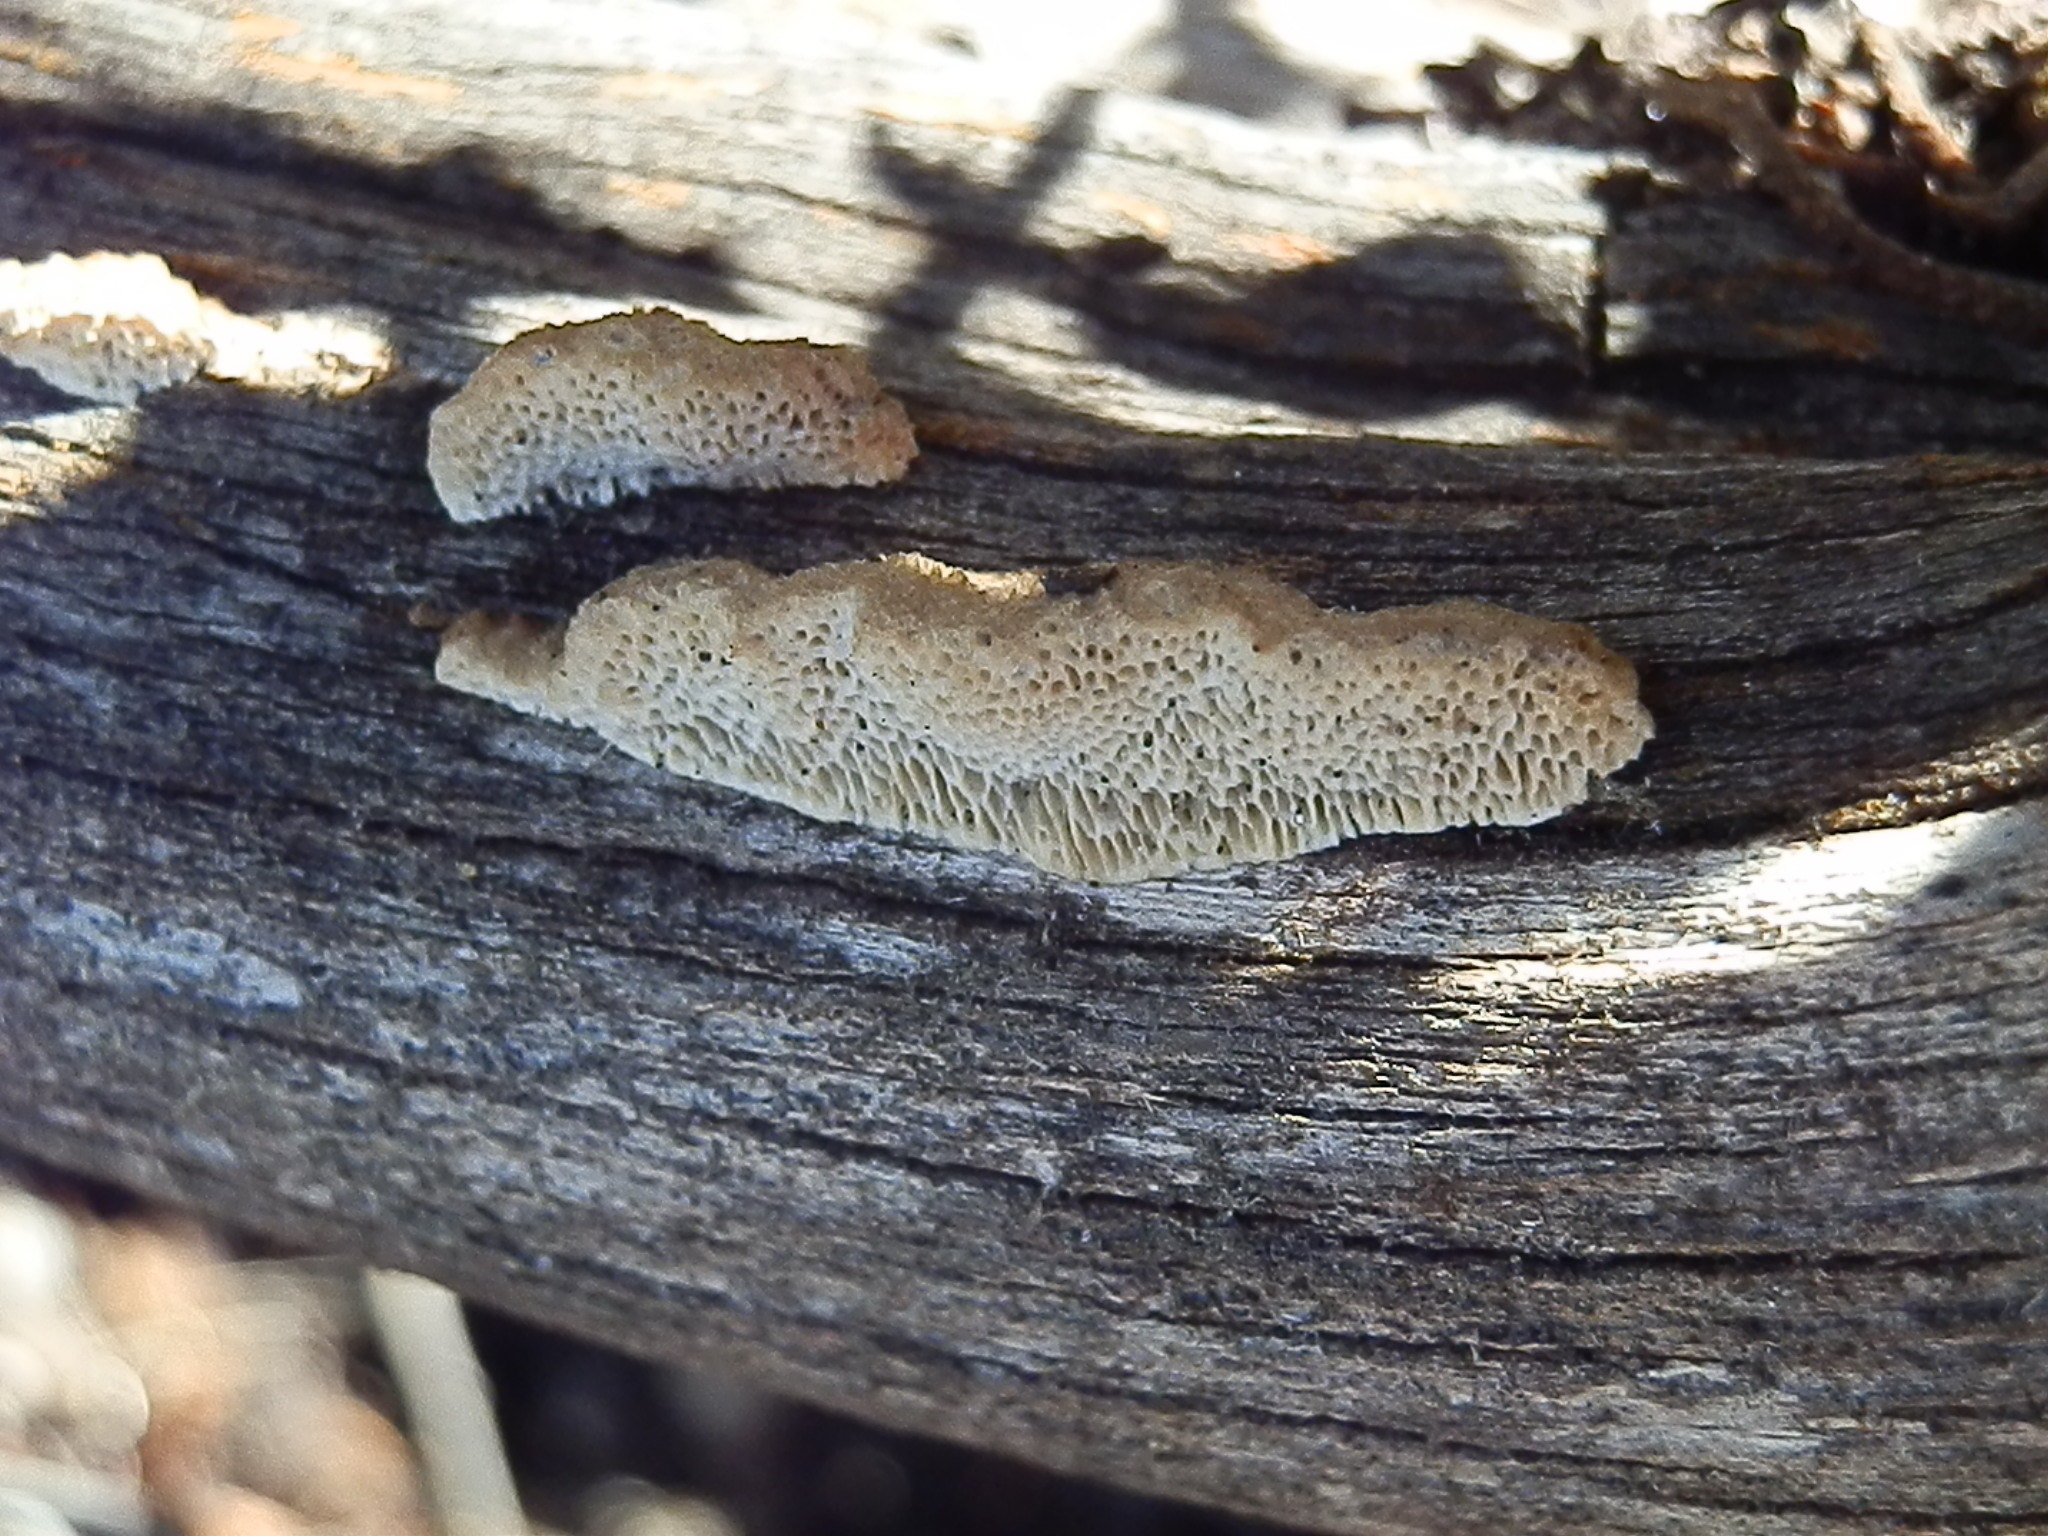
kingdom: Fungi
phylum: Basidiomycota
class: Agaricomycetes
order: Polyporales
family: Fomitopsidaceae
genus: Antrodia
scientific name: Antrodia multiformis
